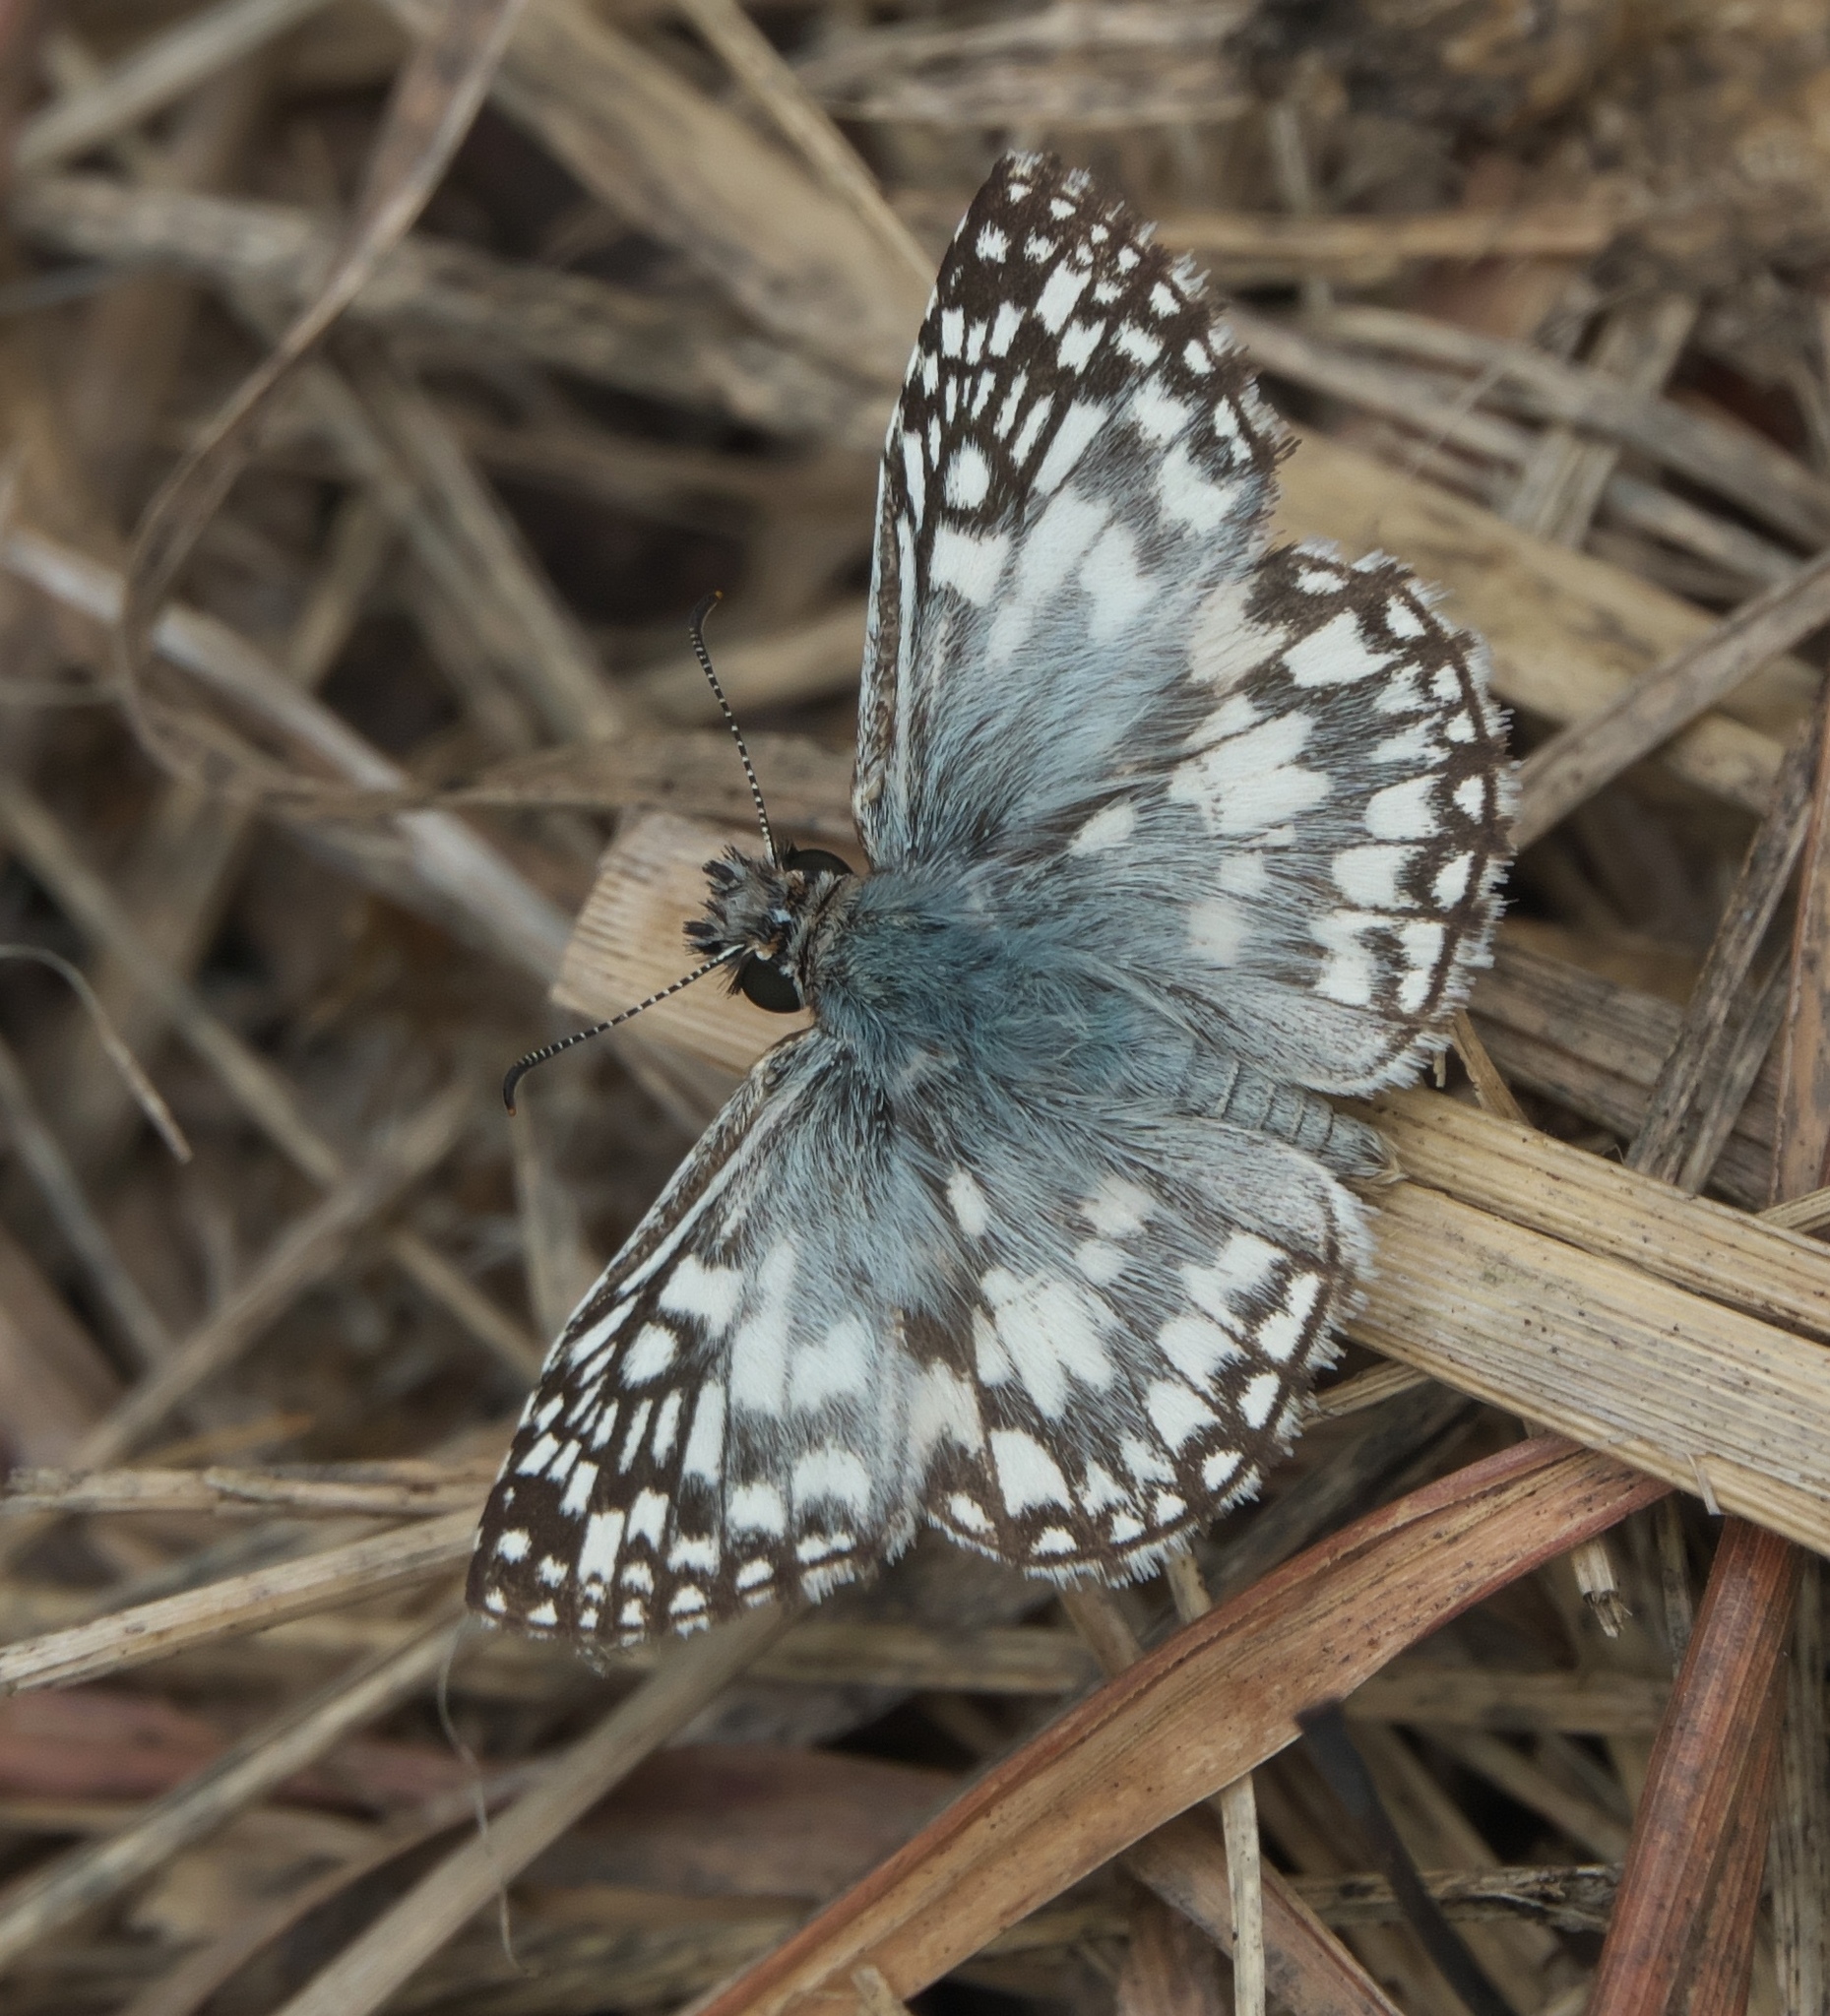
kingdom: Animalia
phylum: Arthropoda
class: Insecta
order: Lepidoptera
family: Hesperiidae
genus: Pyrgus
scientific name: Pyrgus oileus
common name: Tropical checkered-skipper
